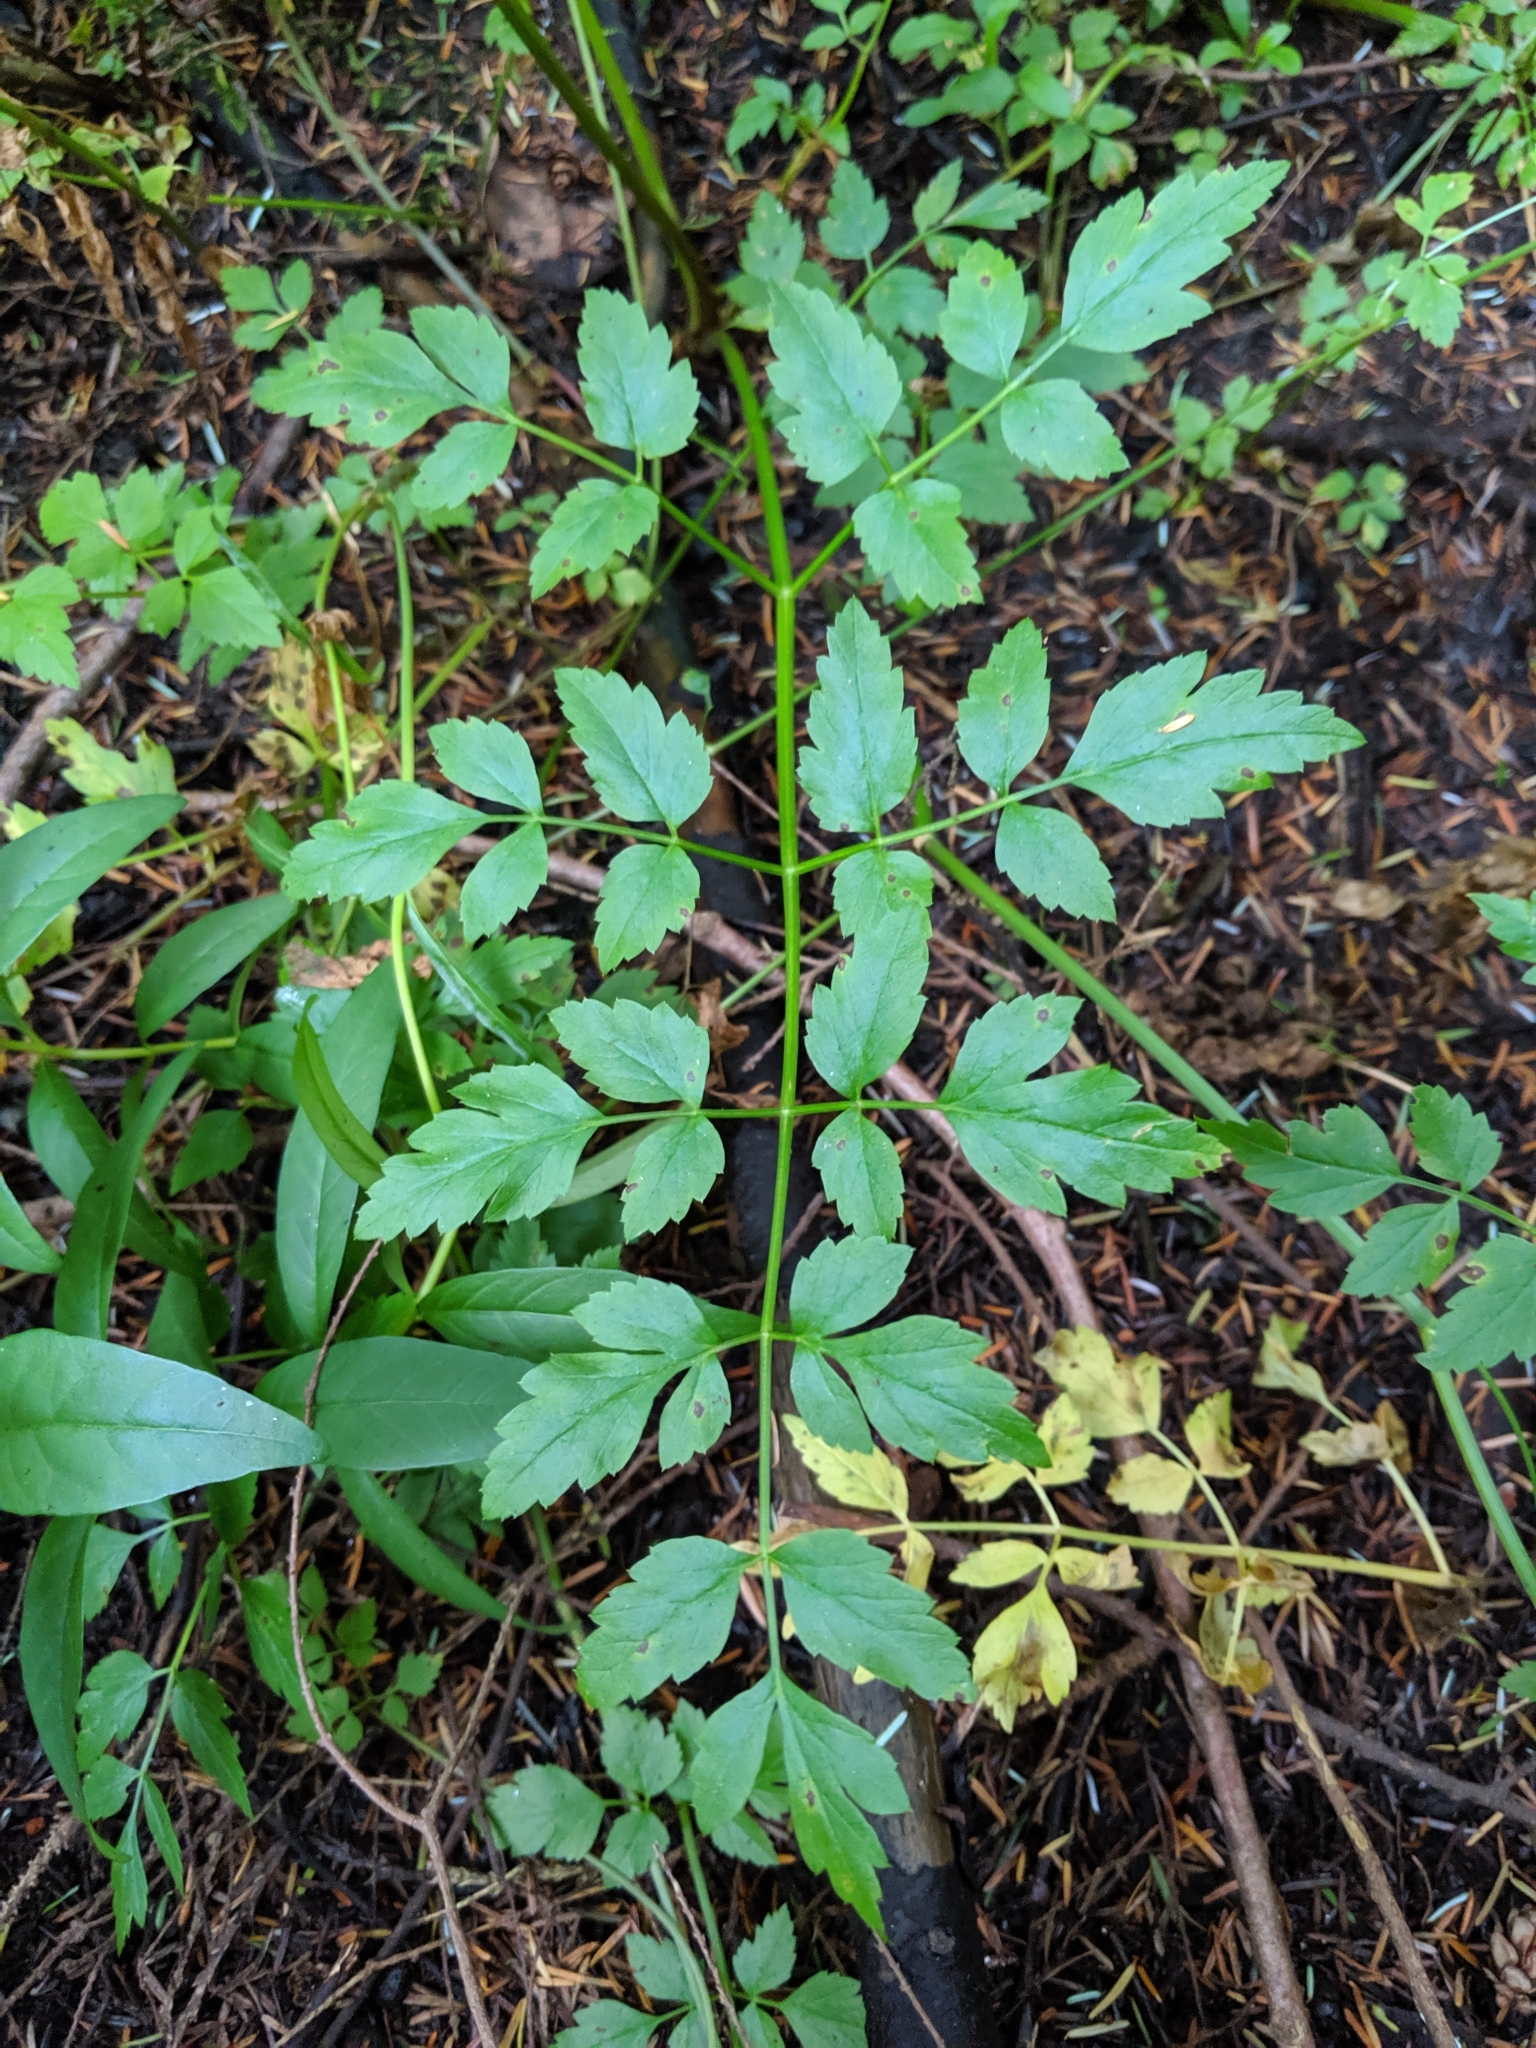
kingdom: Plantae
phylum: Tracheophyta
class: Magnoliopsida
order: Apiales
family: Apiaceae
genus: Oenanthe
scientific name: Oenanthe sarmentosa
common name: American water-parsley
